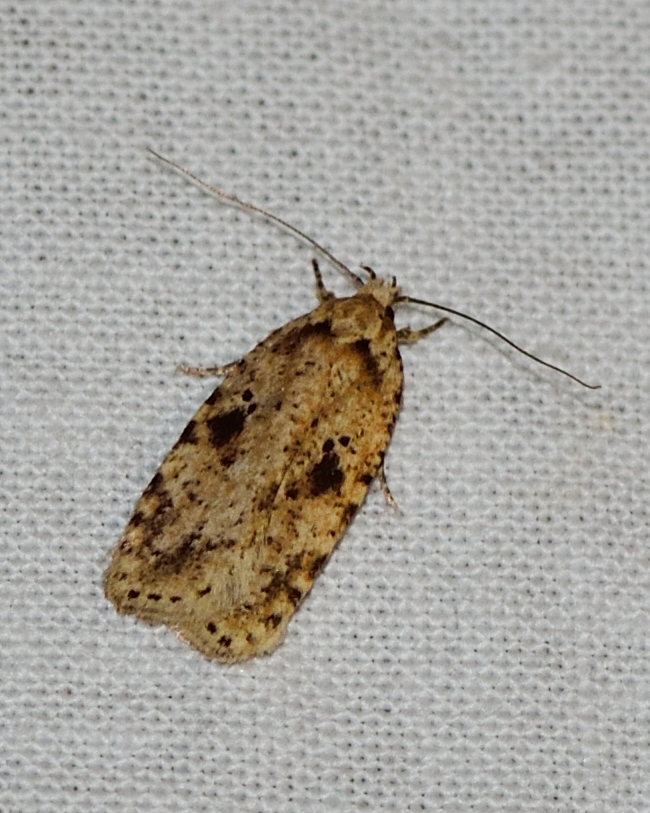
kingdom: Animalia
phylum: Arthropoda
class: Insecta
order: Lepidoptera
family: Depressariidae
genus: Agonopterix
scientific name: Agonopterix arenella
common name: Brindled flat-body
